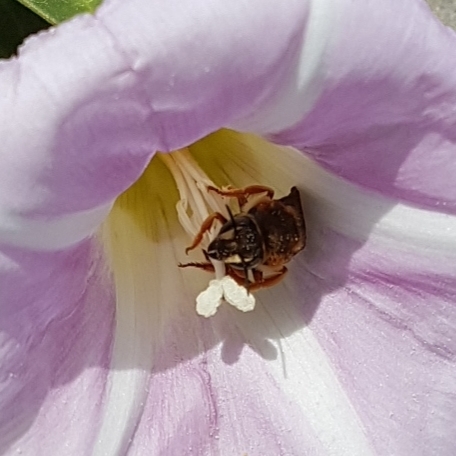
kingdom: Animalia
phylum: Arthropoda
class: Insecta
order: Hymenoptera
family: Megachilidae
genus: Rhodanthidium
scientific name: Rhodanthidium septemdentatum
